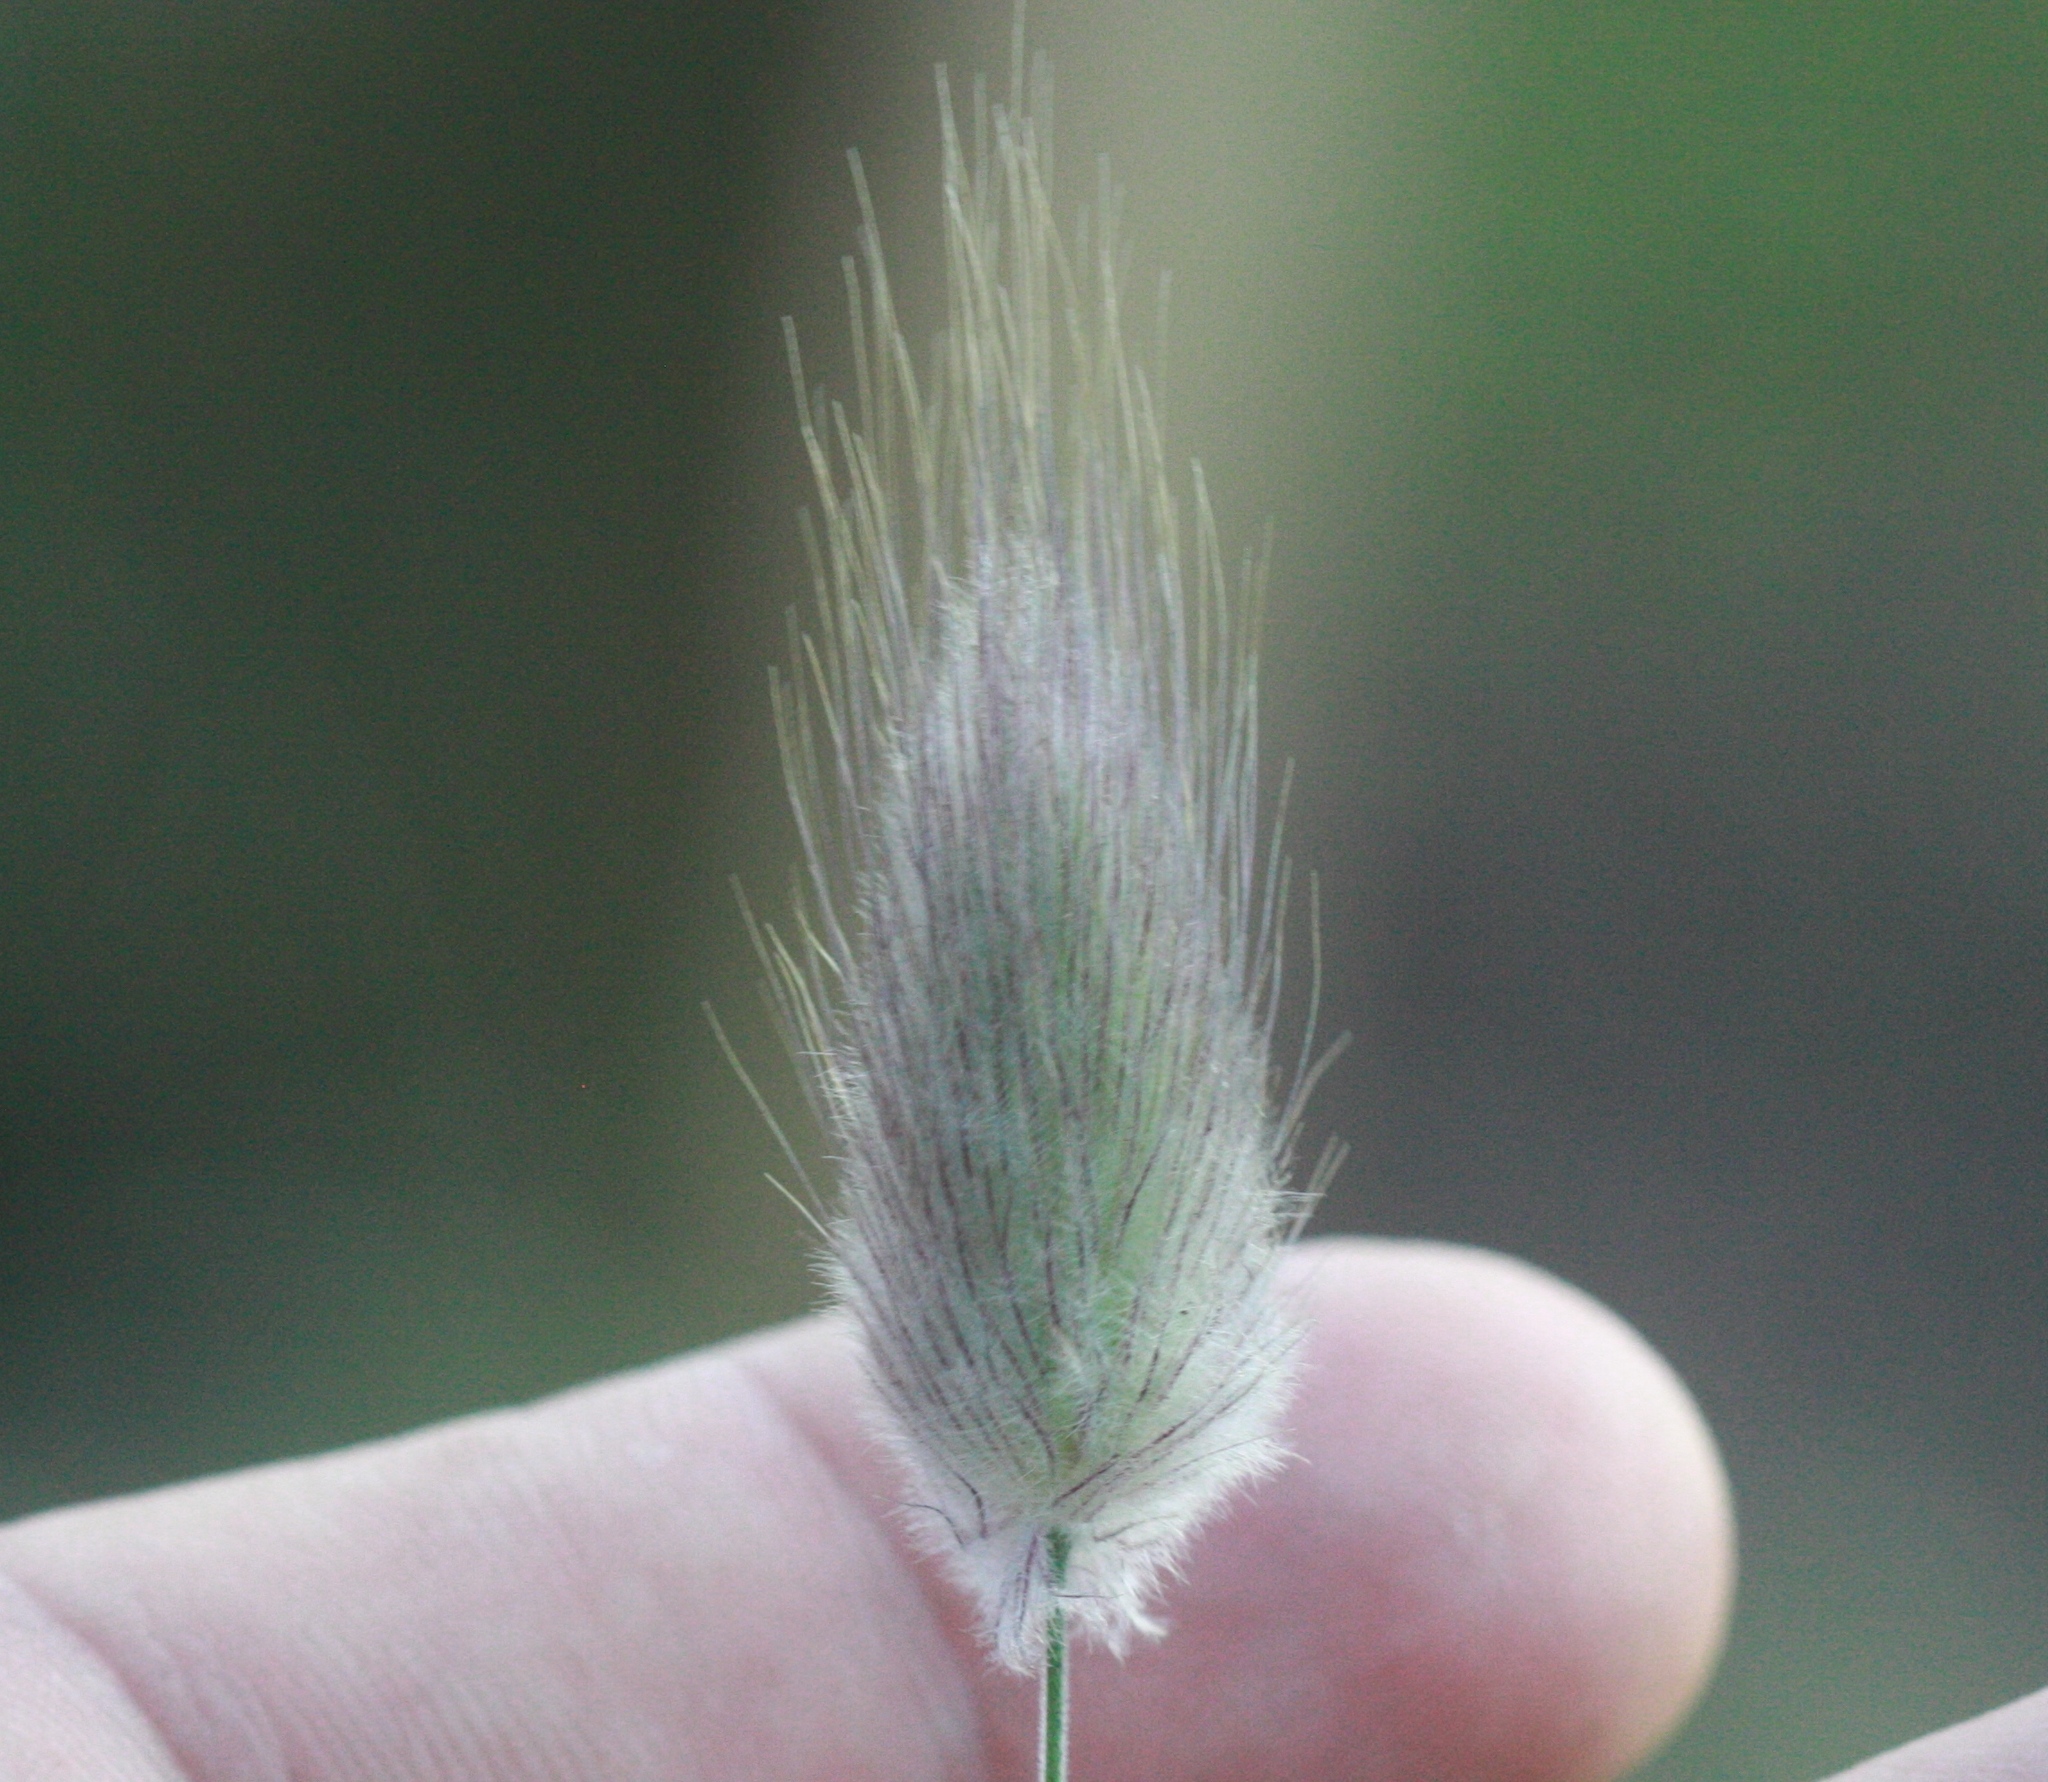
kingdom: Plantae
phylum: Tracheophyta
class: Liliopsida
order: Poales
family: Poaceae
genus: Lagurus
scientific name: Lagurus ovatus
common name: Hare's-tail
